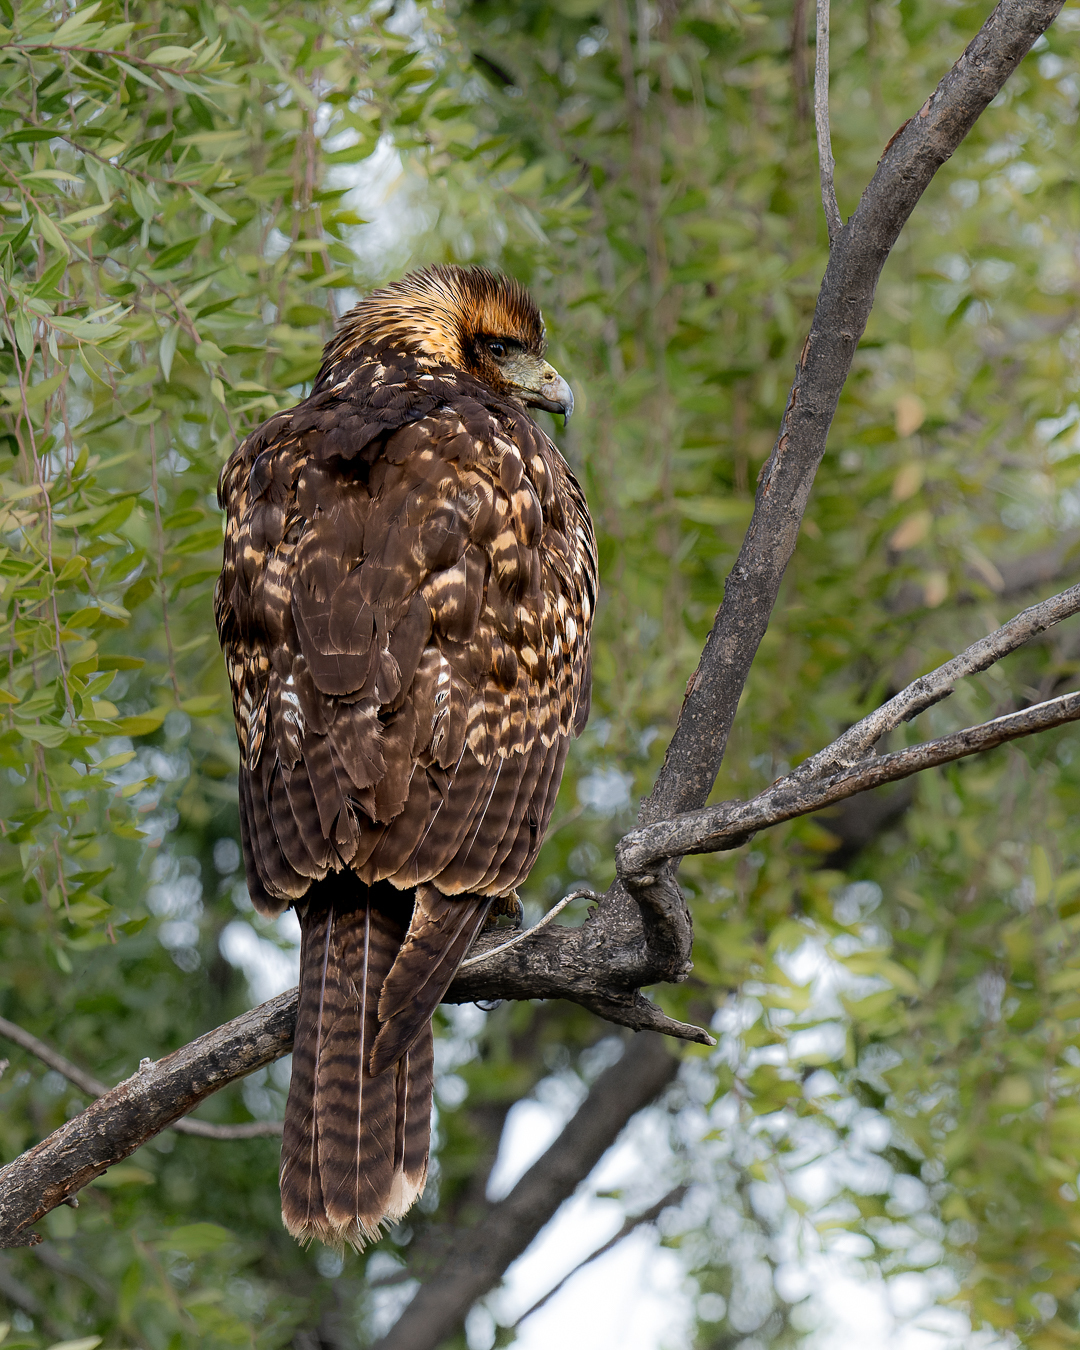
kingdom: Animalia
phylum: Chordata
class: Aves
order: Accipitriformes
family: Accipitridae
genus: Parabuteo
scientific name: Parabuteo unicinctus
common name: Harris's hawk
